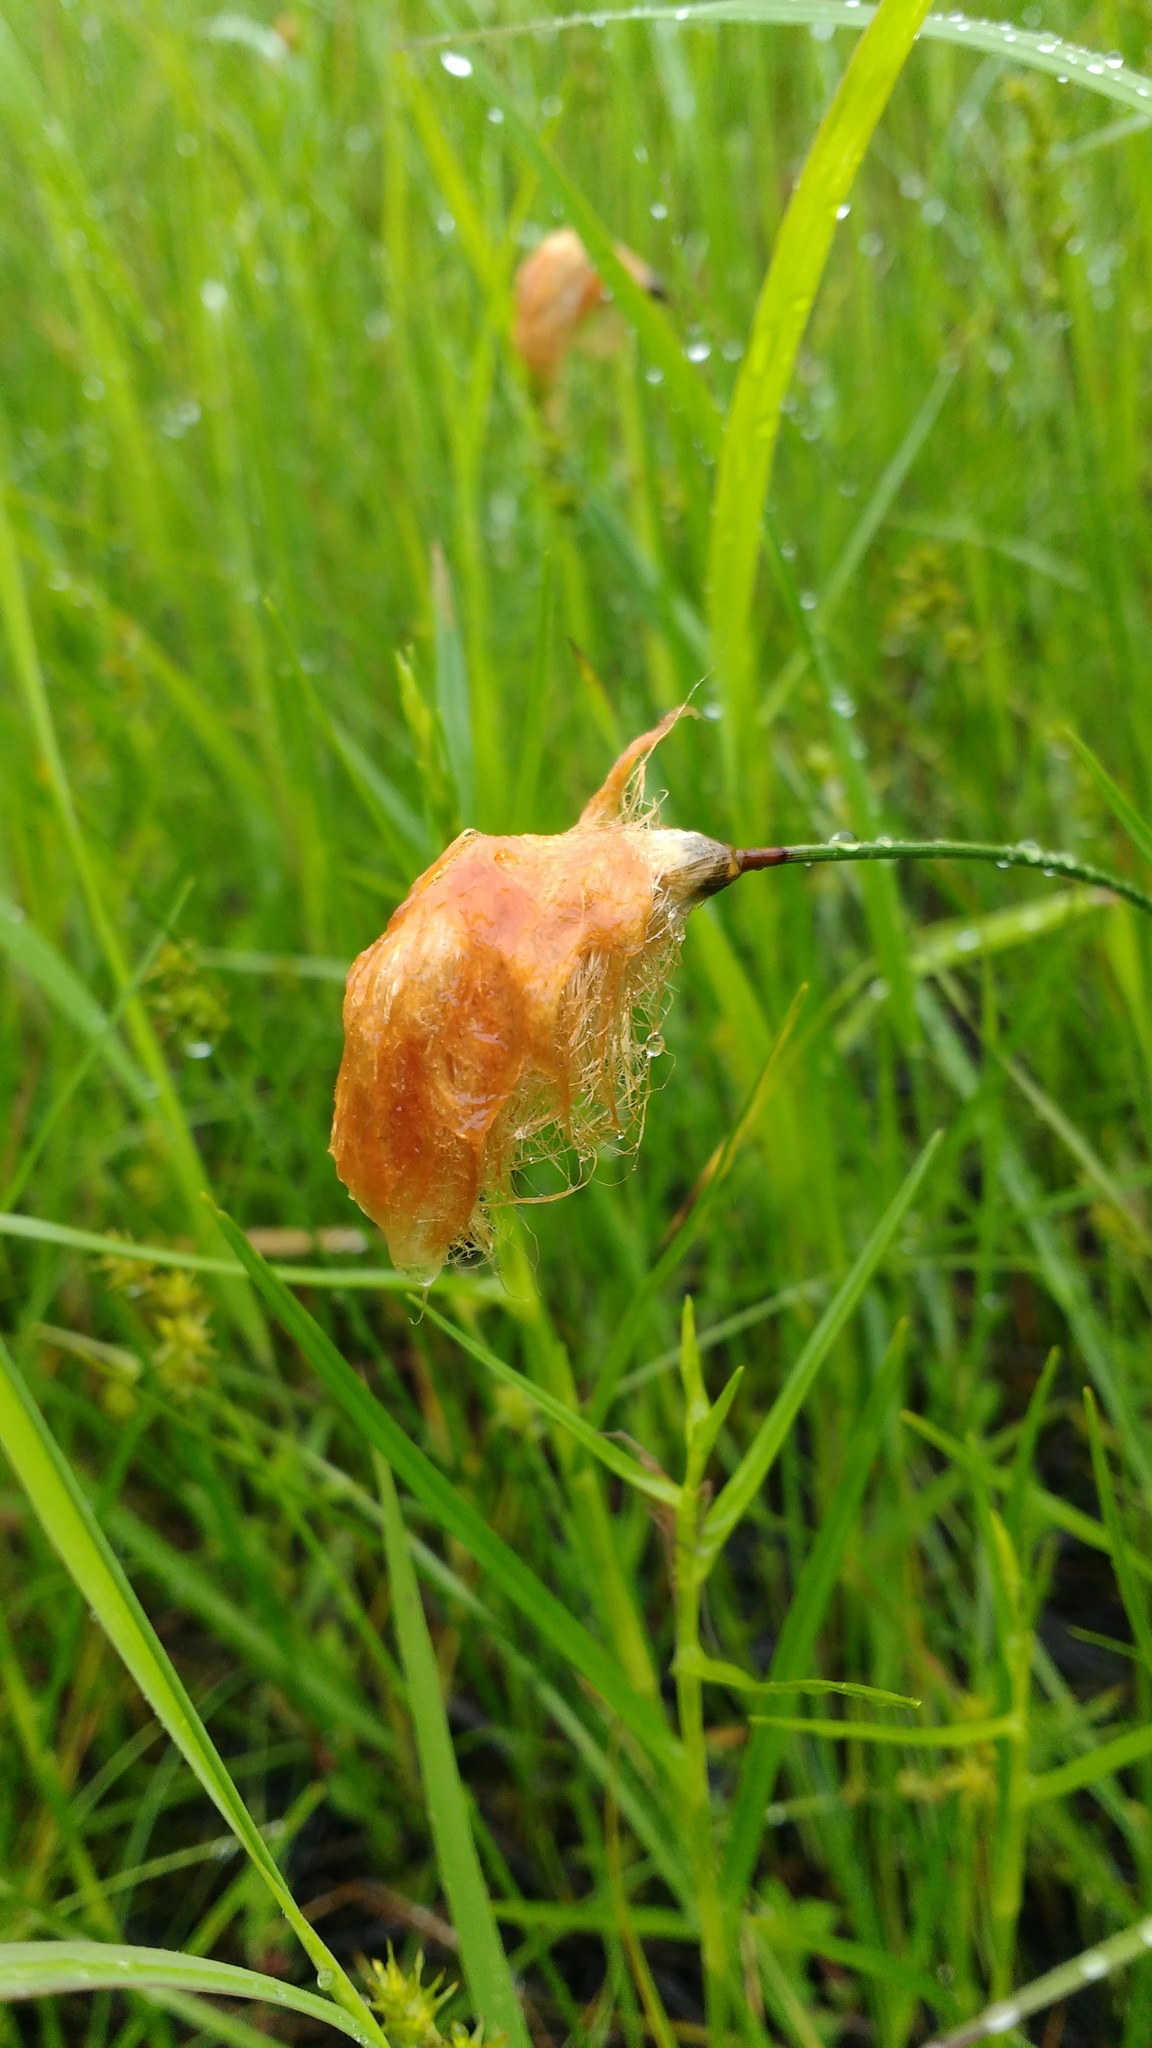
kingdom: Plantae
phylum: Tracheophyta
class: Liliopsida
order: Poales
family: Cyperaceae
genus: Eriophorum
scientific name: Eriophorum chamissonis
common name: Chamisso's cottongrass
